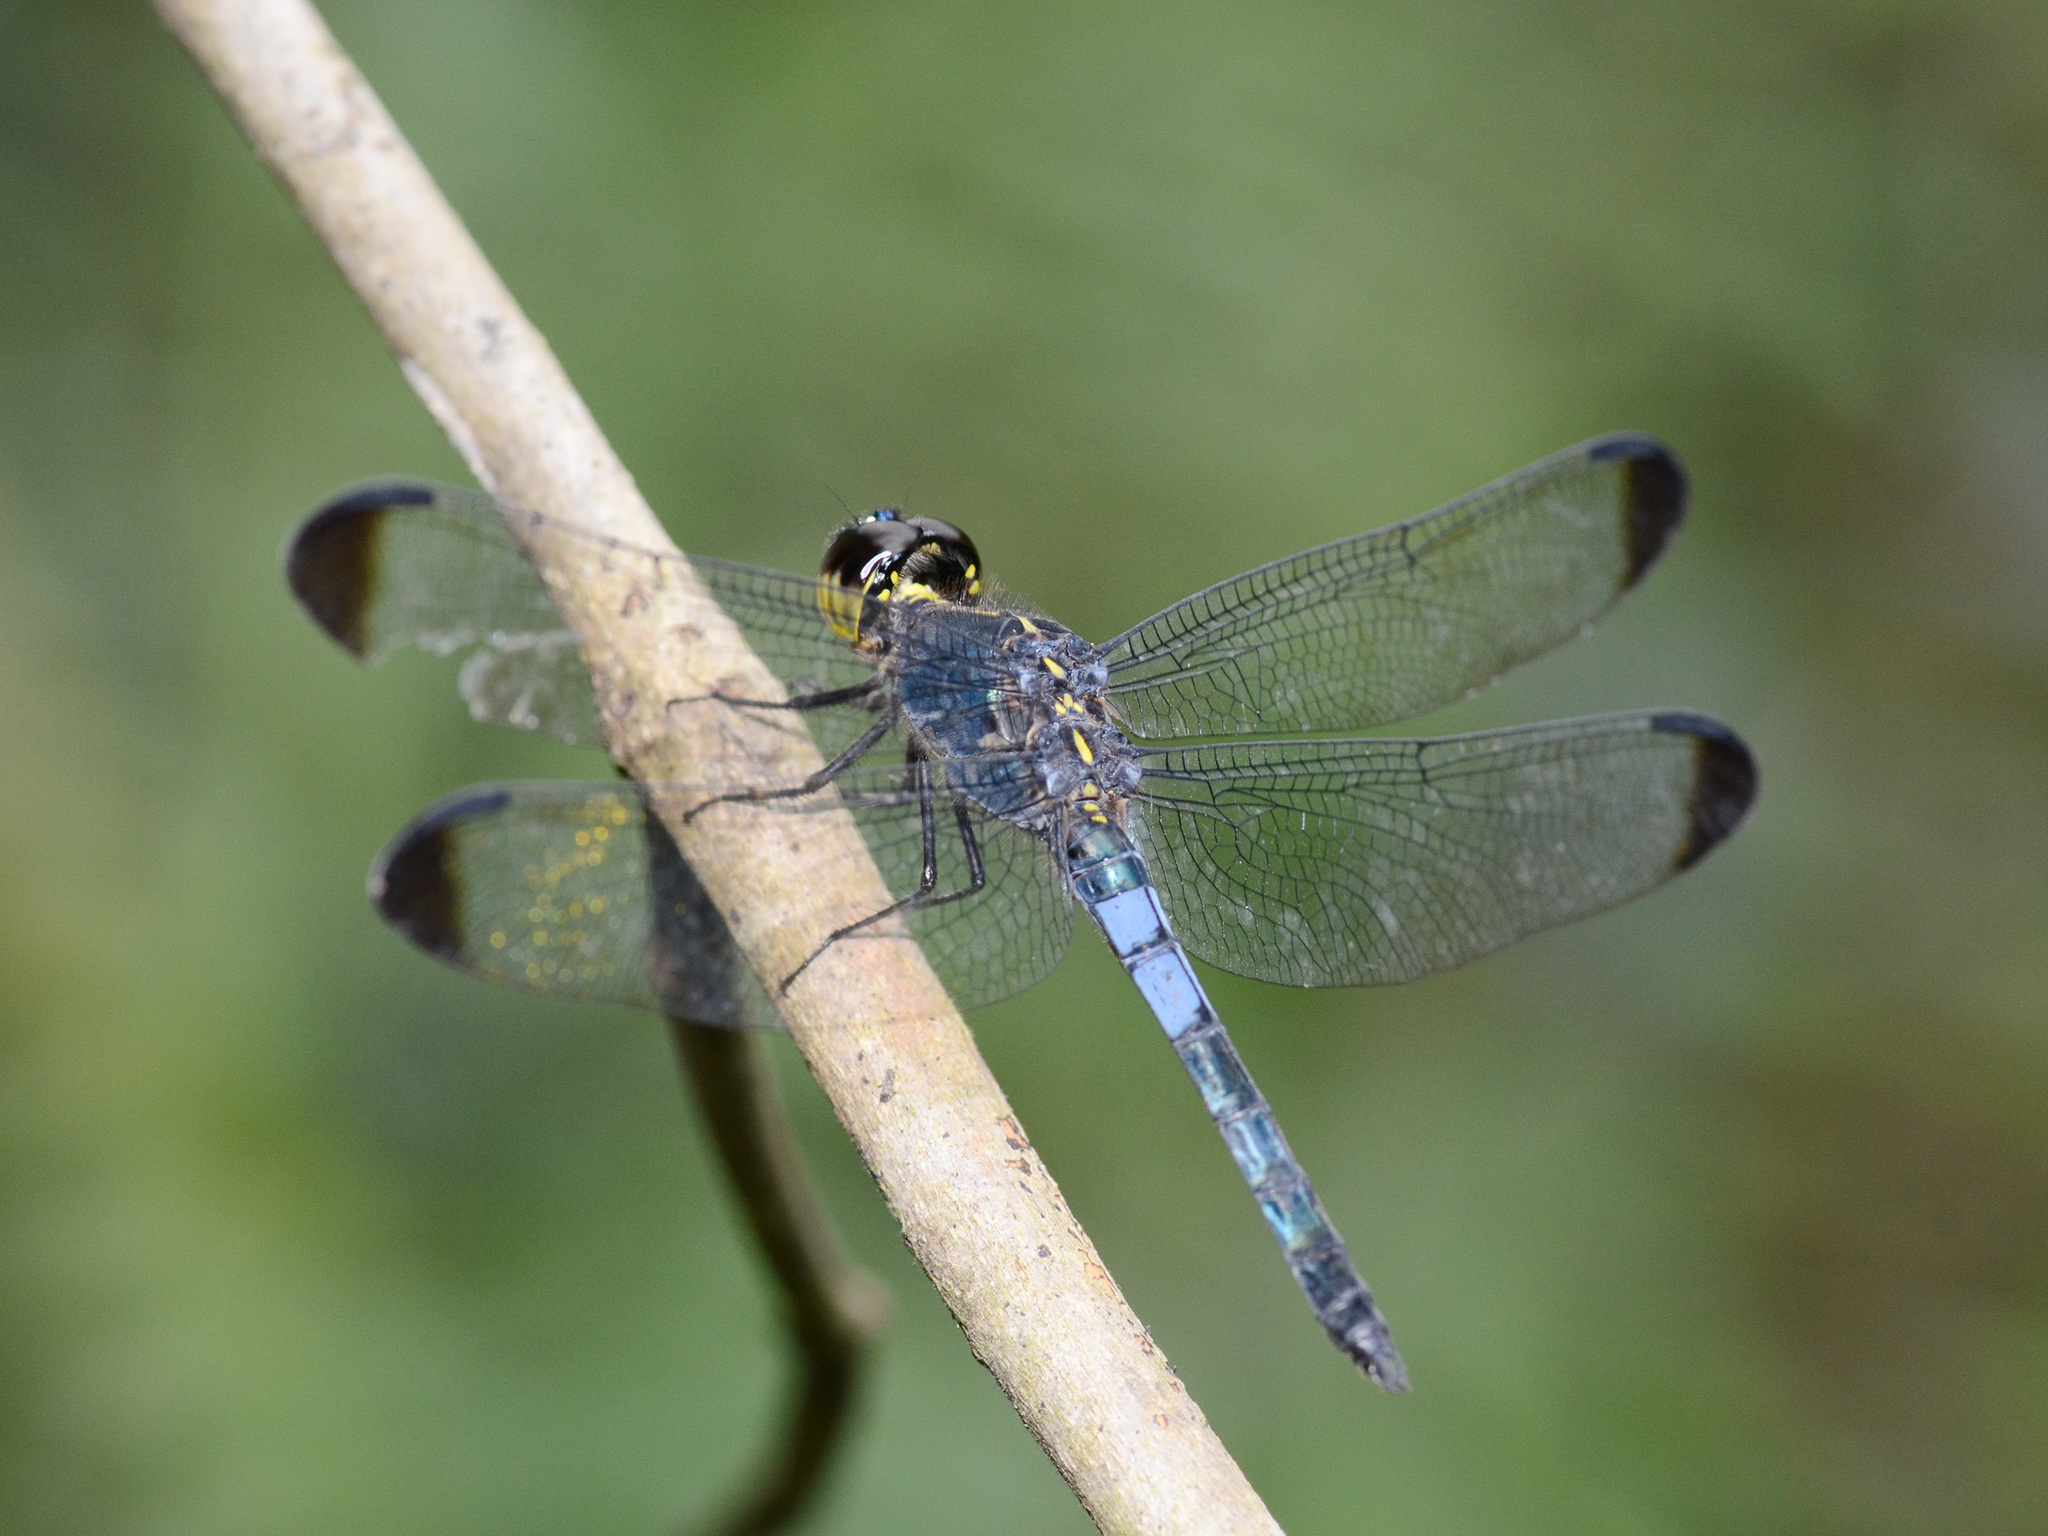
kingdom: Animalia
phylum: Arthropoda
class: Insecta
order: Odonata
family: Libellulidae
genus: Cratilla
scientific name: Cratilla metallica
